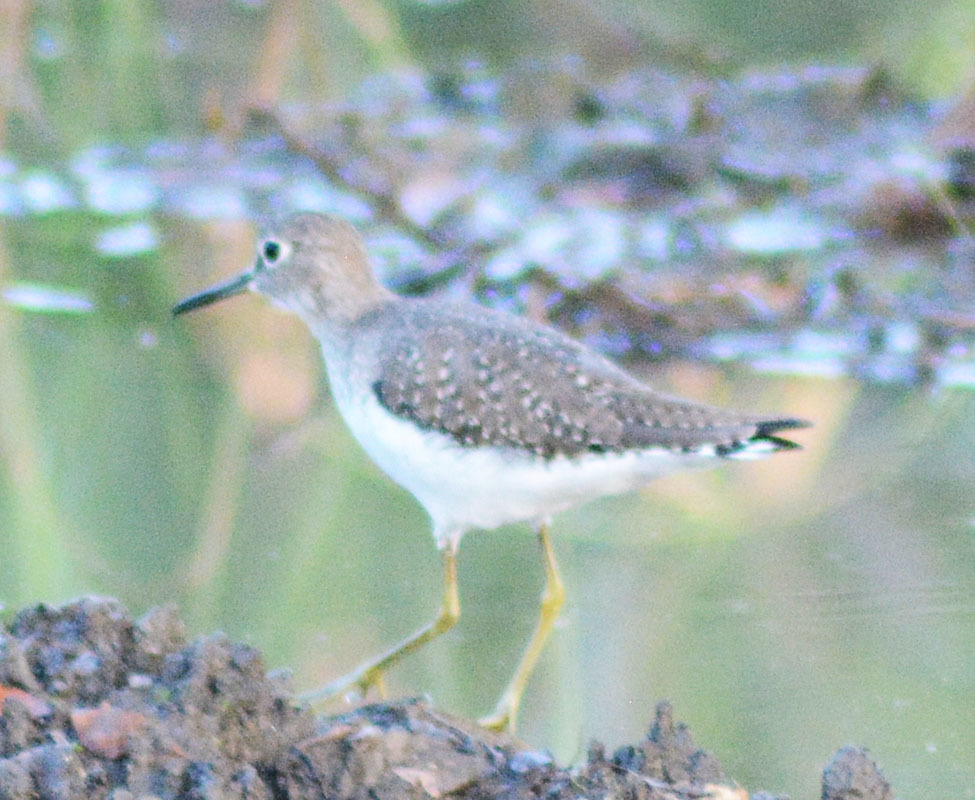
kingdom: Animalia
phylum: Chordata
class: Aves
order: Charadriiformes
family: Scolopacidae
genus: Tringa
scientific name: Tringa solitaria
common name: Solitary sandpiper
